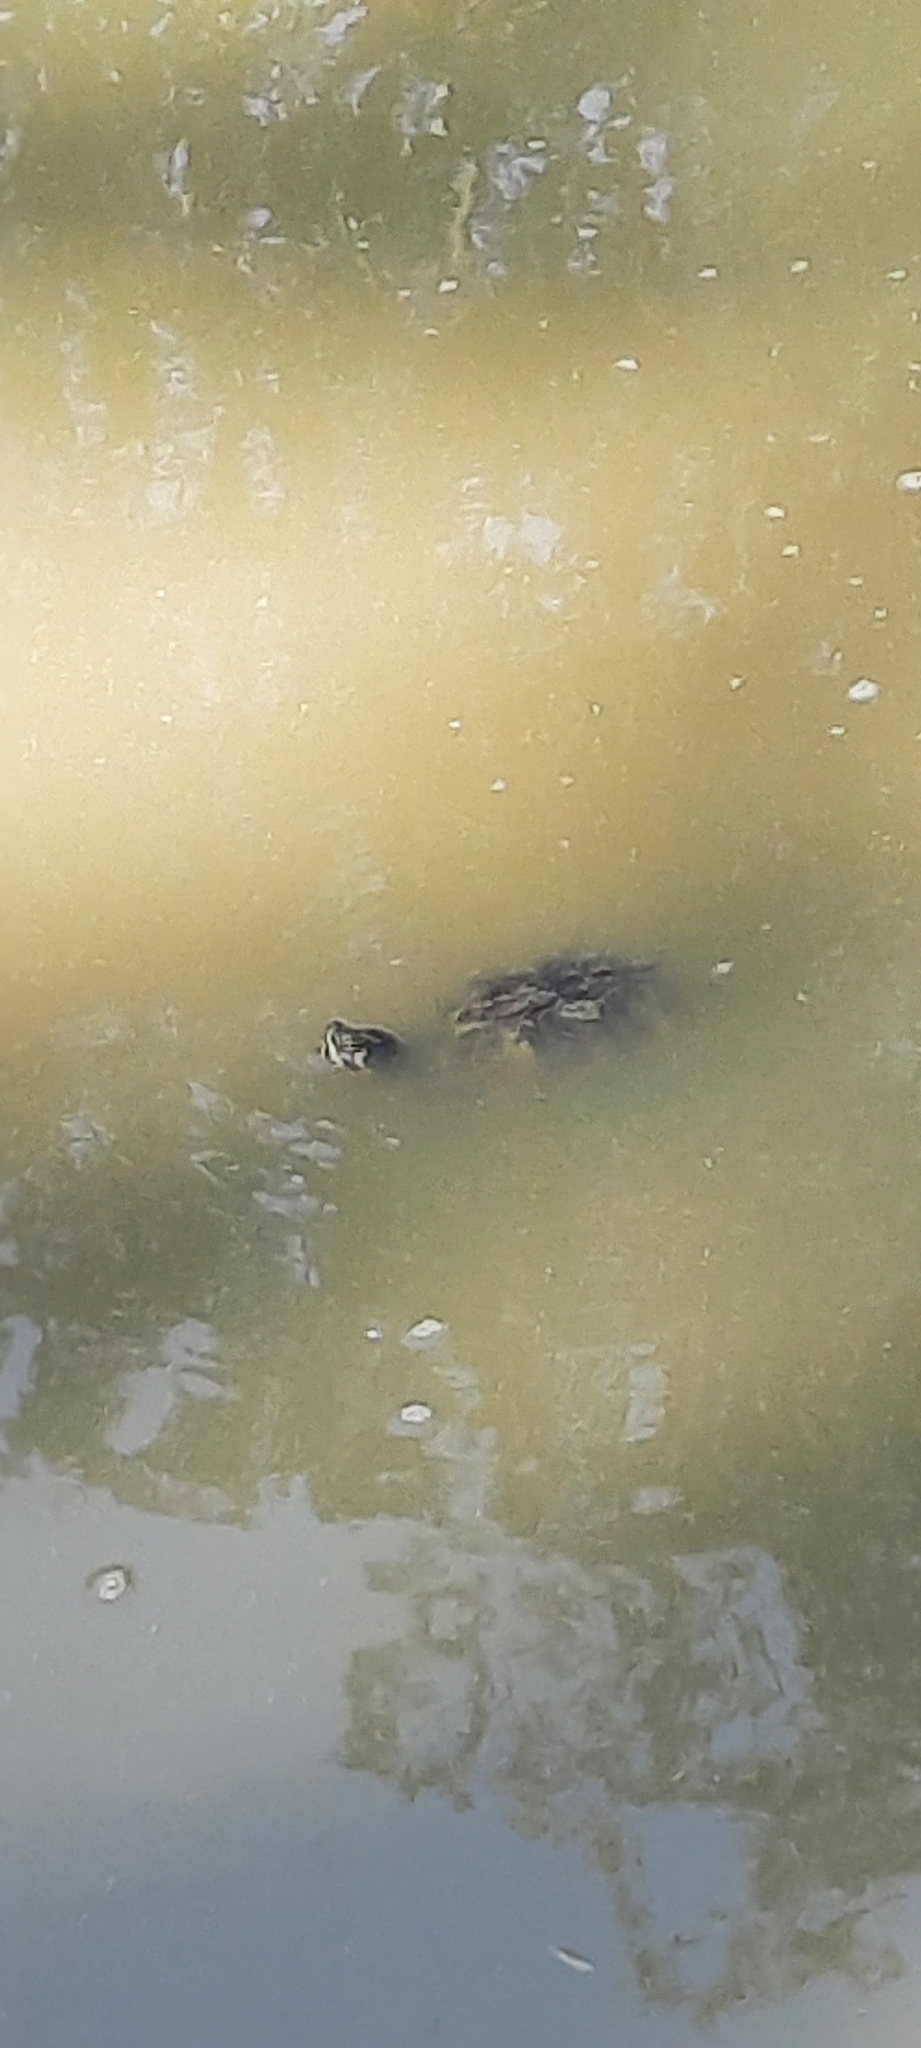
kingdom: Animalia
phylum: Chordata
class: Testudines
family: Emydidae
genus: Trachemys
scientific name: Trachemys scripta
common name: Slider
